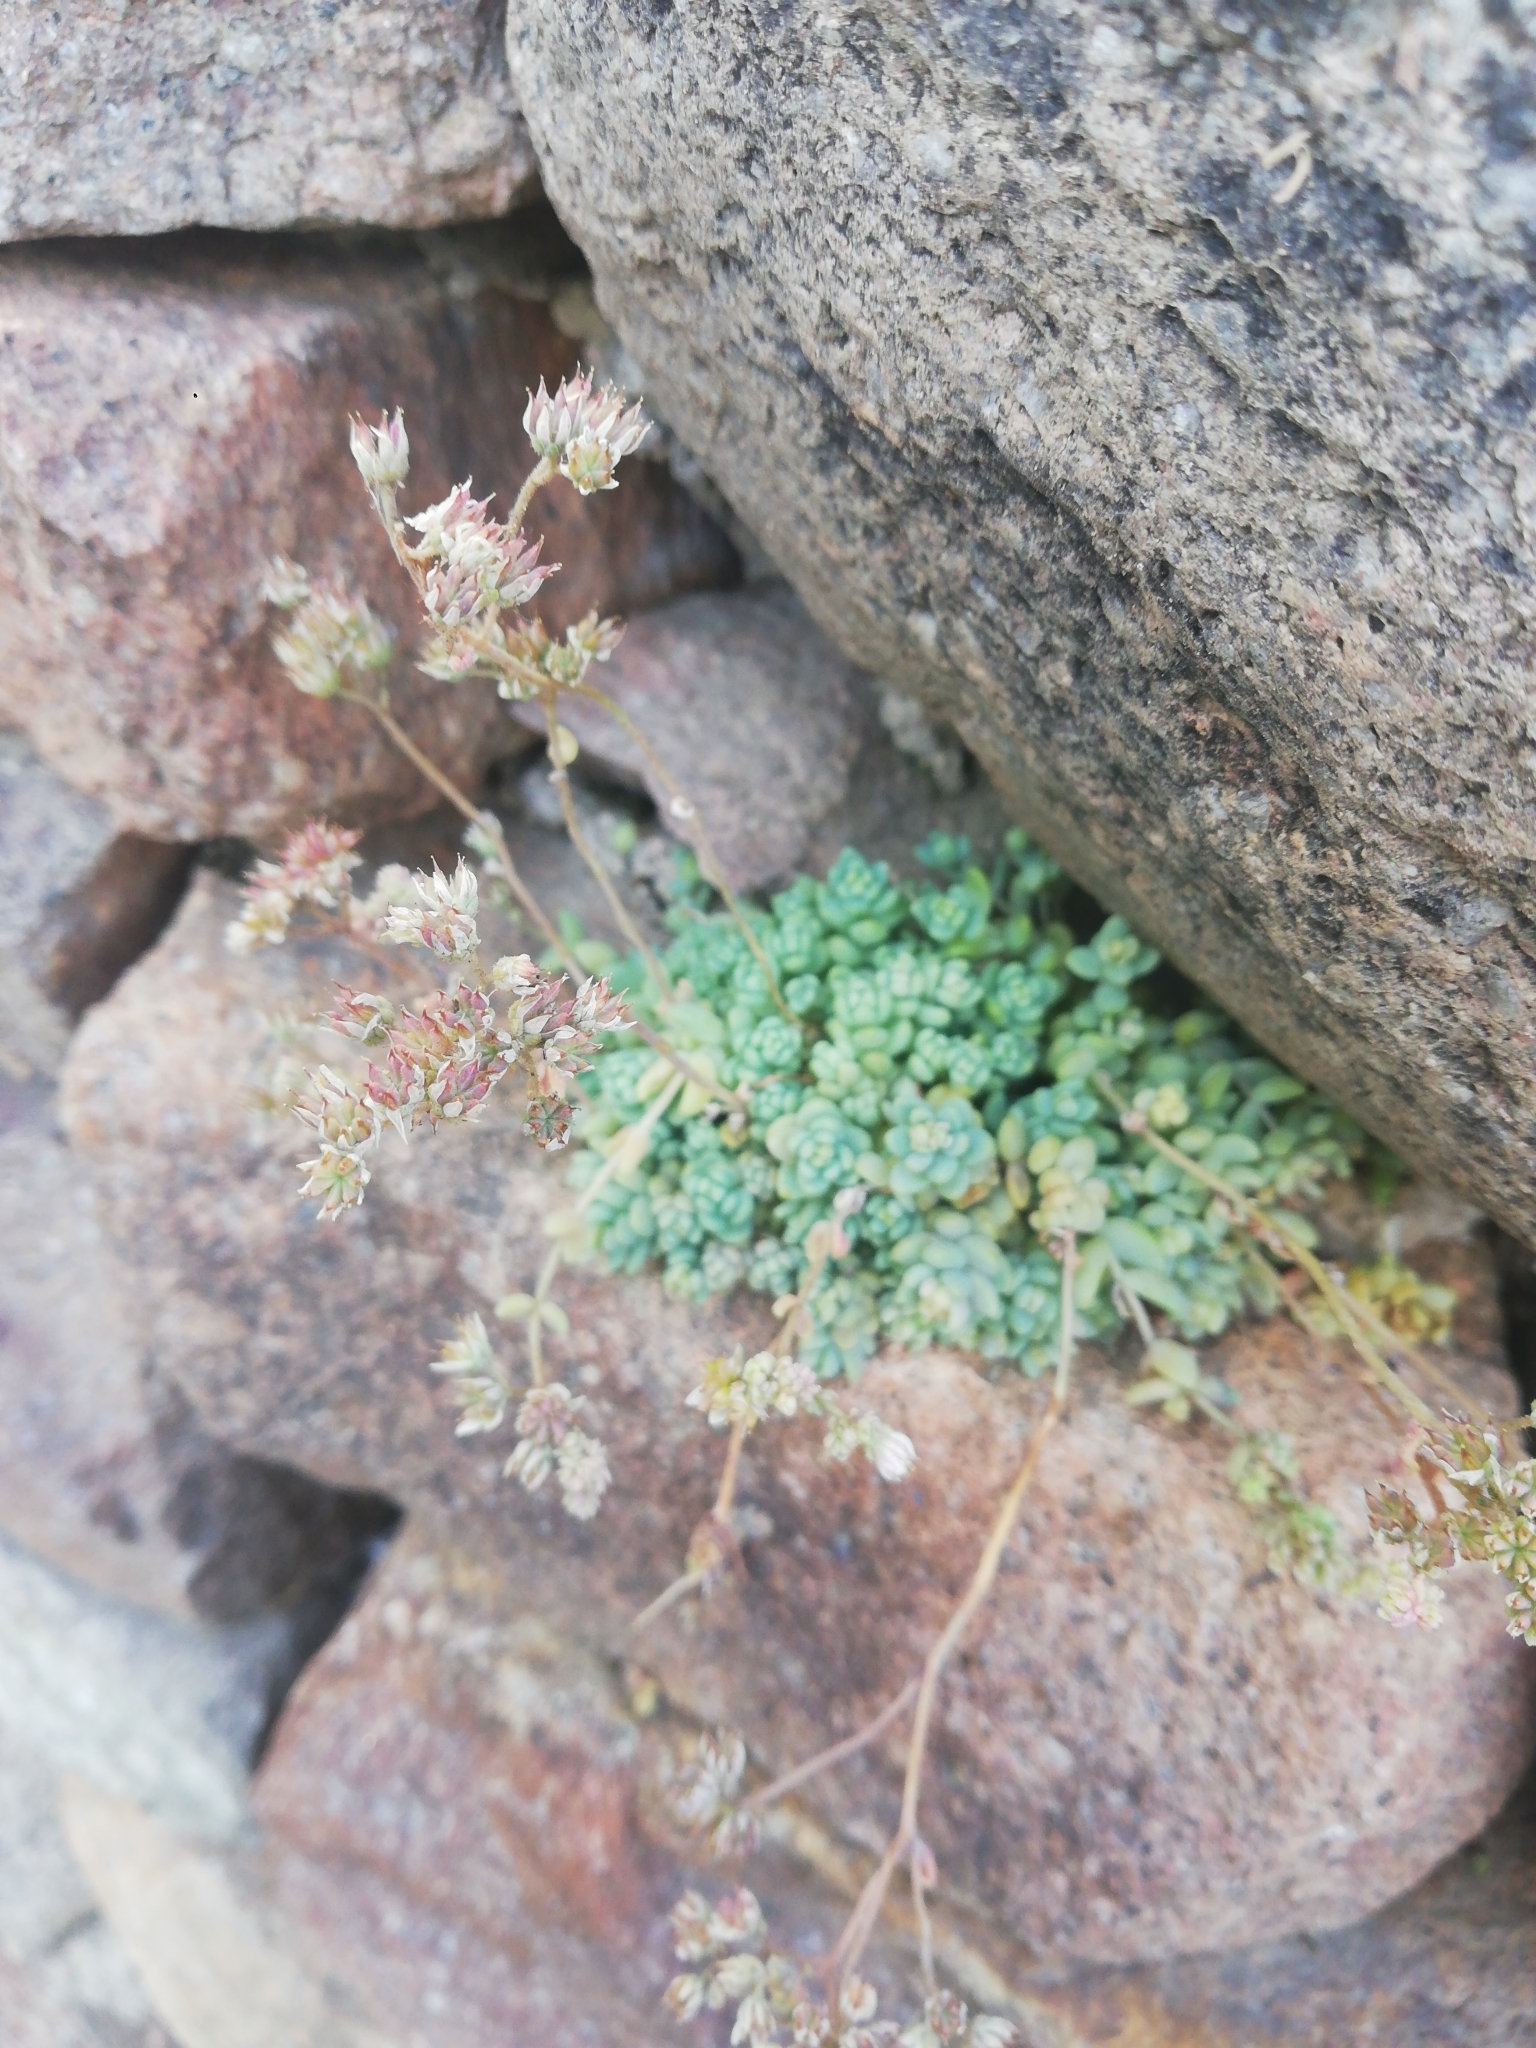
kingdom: Plantae
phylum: Tracheophyta
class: Magnoliopsida
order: Saxifragales
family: Crassulaceae
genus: Sedum
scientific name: Sedum dasyphyllum
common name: Thick-leaf stonecrop
